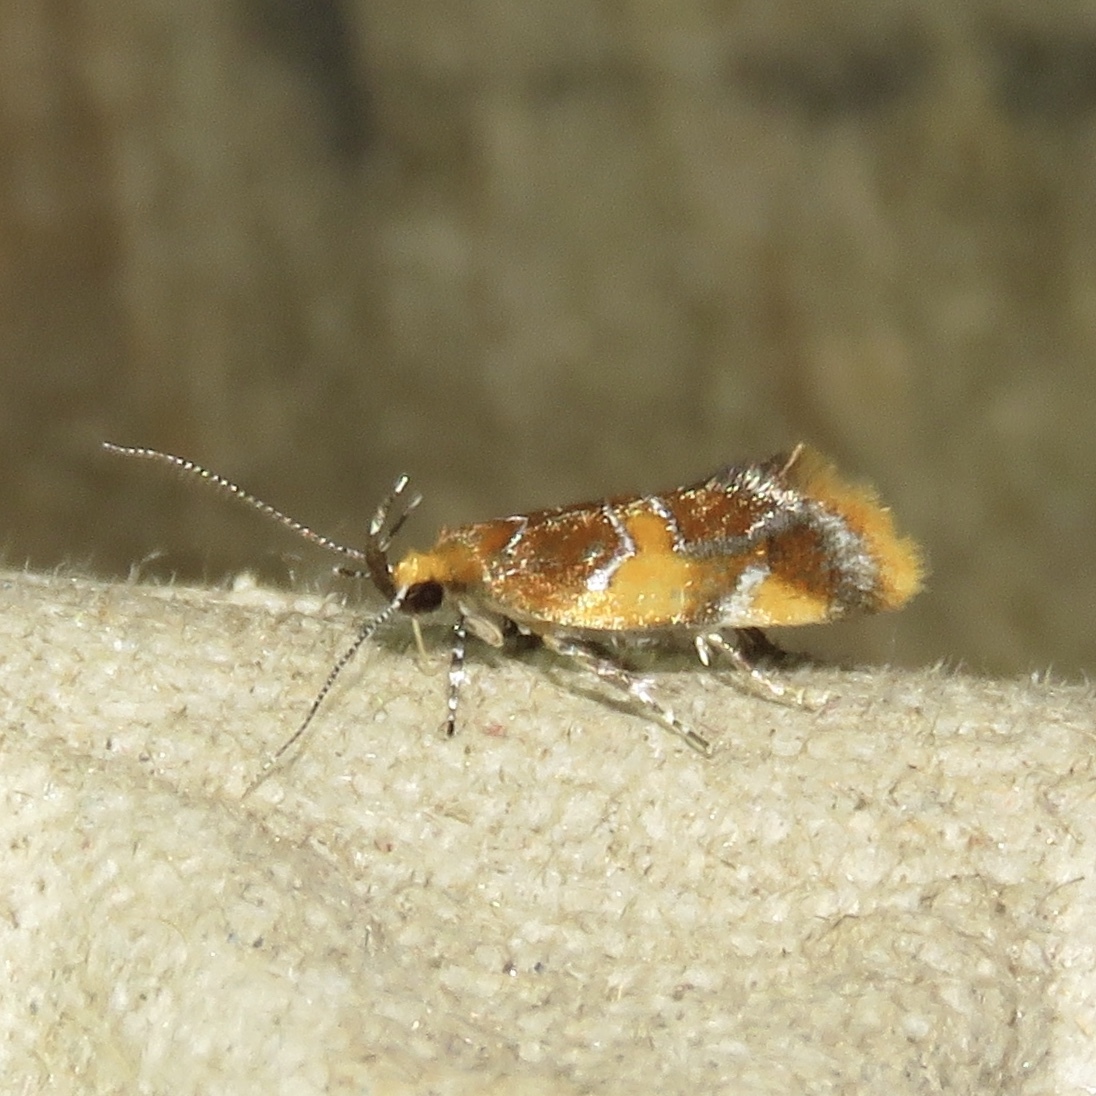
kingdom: Animalia
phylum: Arthropoda
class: Insecta
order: Lepidoptera
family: Oecophoridae
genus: Callima
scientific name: Callima argenticinctella
